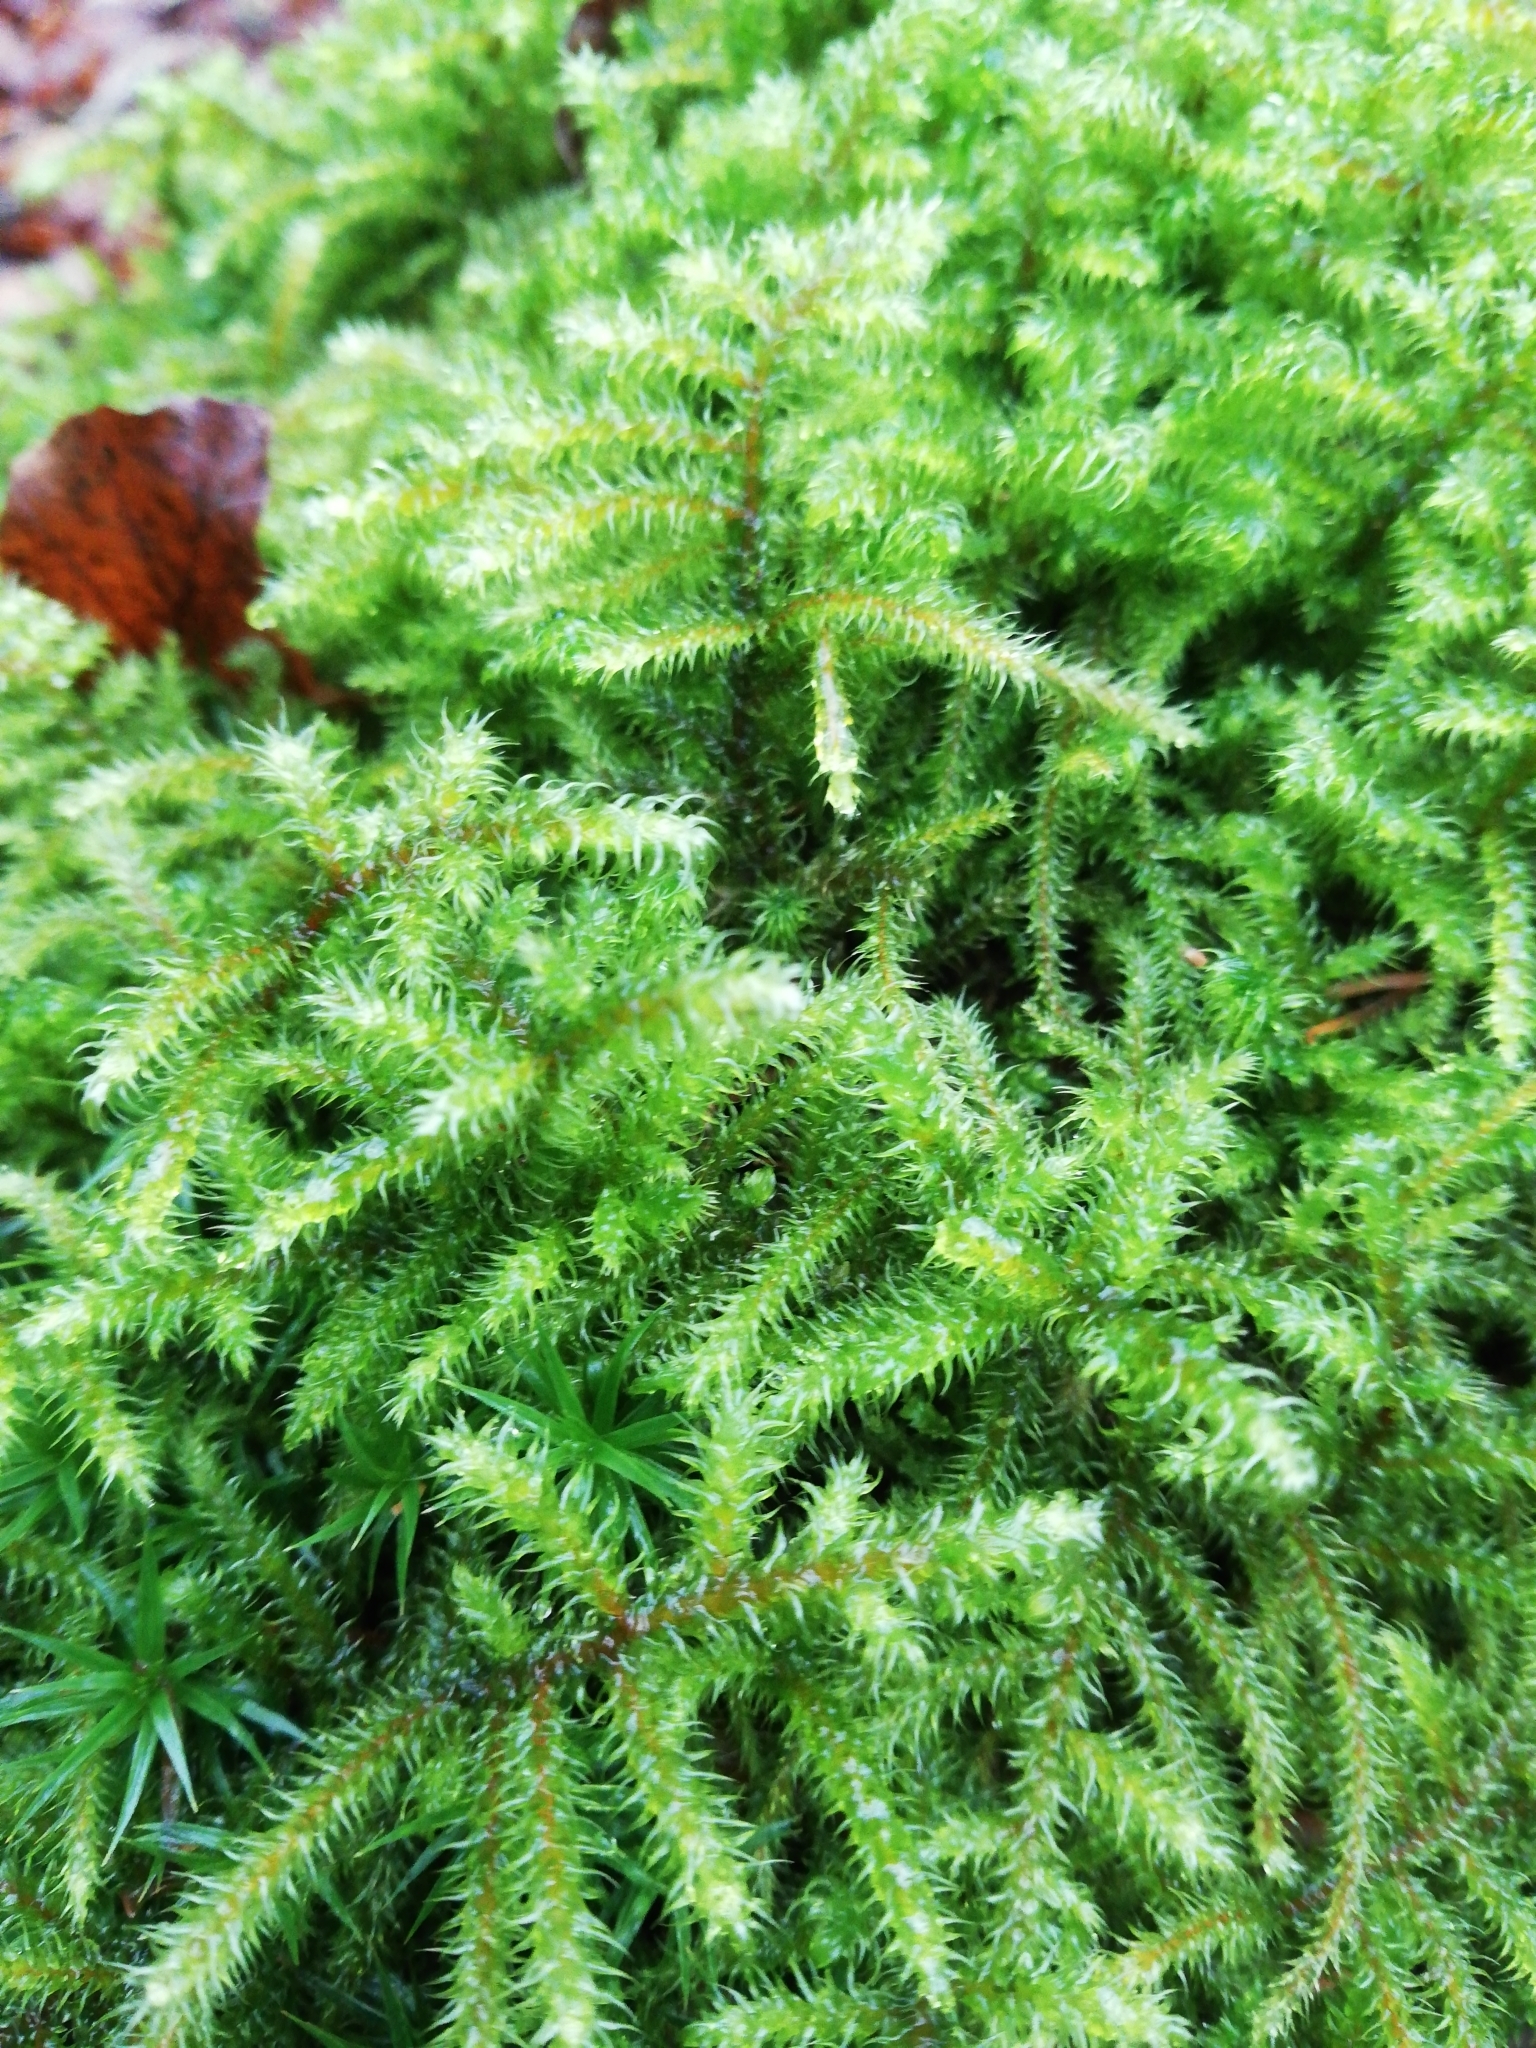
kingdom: Plantae
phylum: Bryophyta
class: Bryopsida
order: Hypnales
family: Hylocomiaceae
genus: Rhytidiadelphus
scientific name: Rhytidiadelphus loreus
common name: Lanky moss
